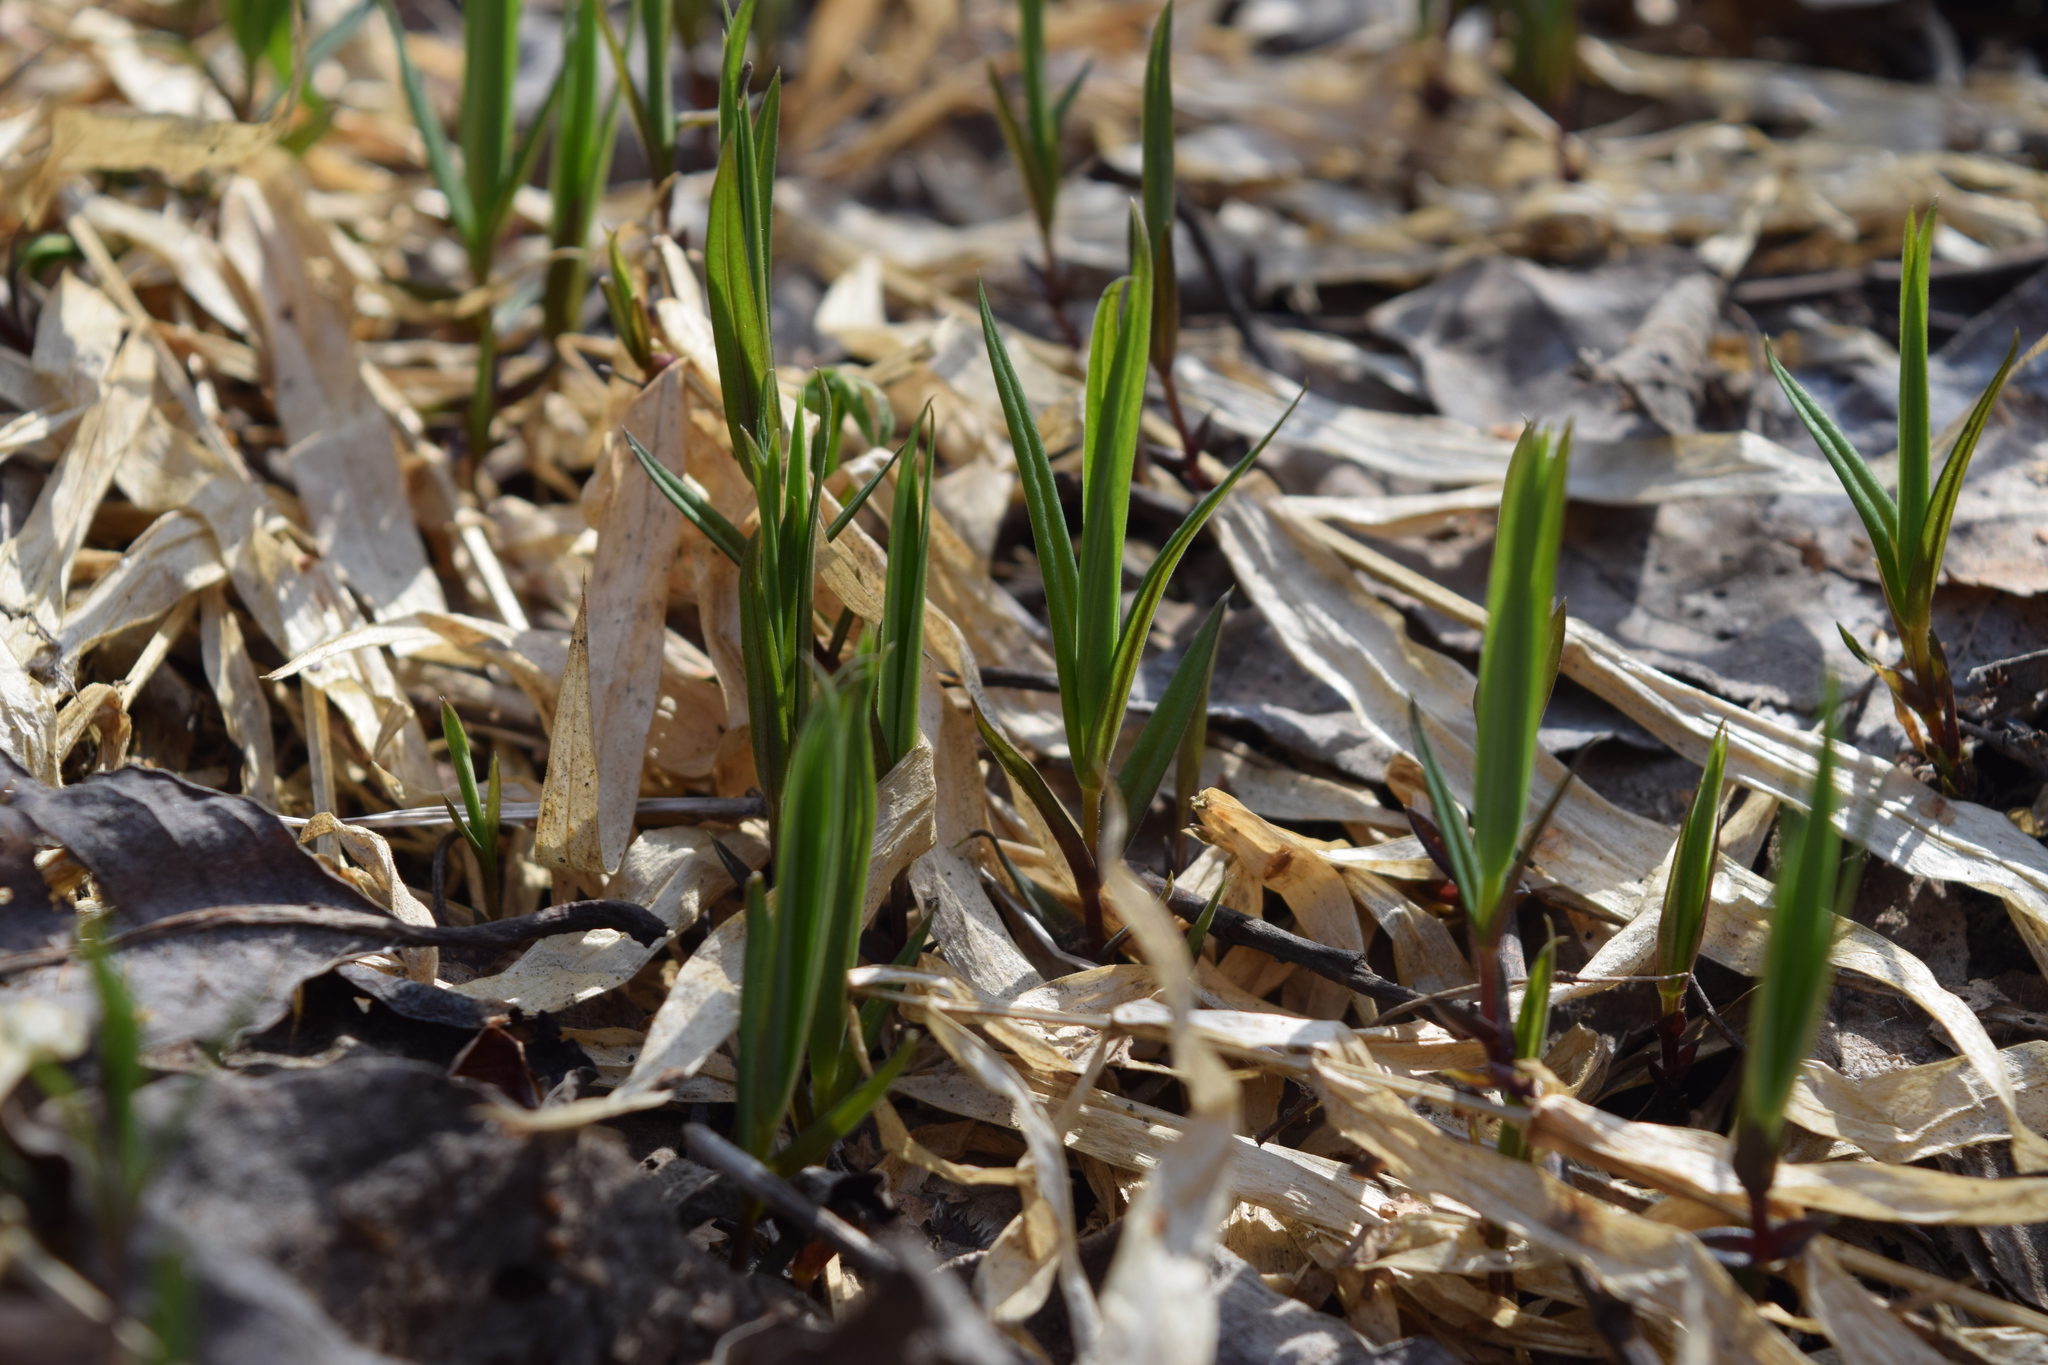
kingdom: Plantae
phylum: Tracheophyta
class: Magnoliopsida
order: Caryophyllales
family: Caryophyllaceae
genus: Rabelera
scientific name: Rabelera holostea
